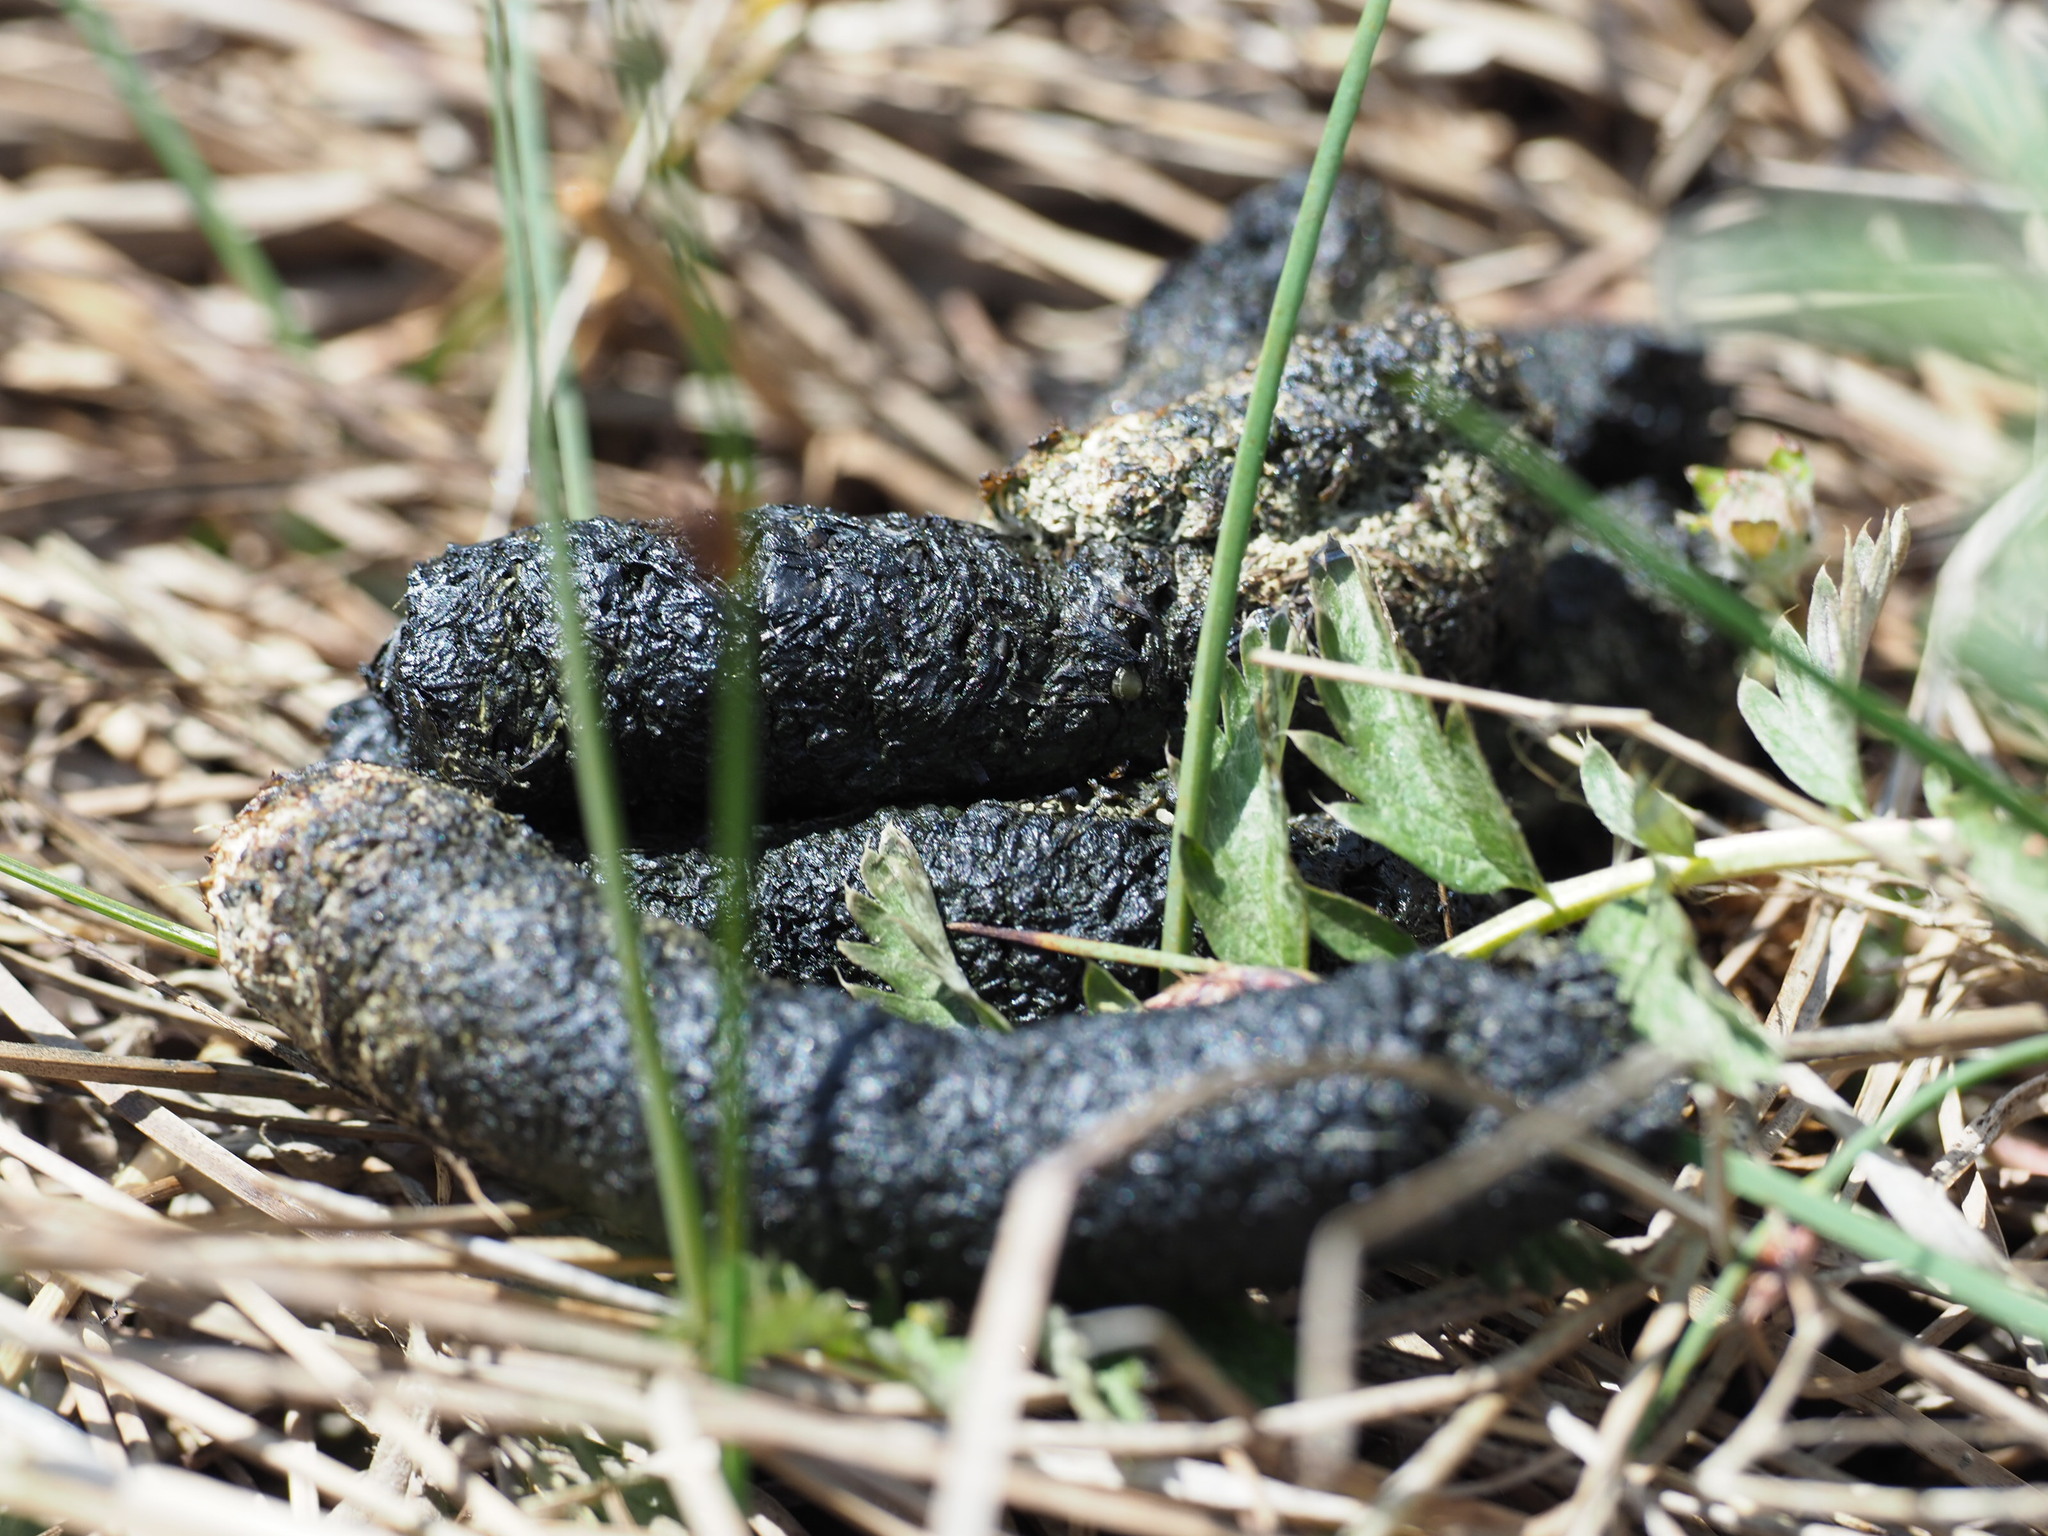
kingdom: Animalia
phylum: Chordata
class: Aves
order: Anseriformes
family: Anatidae
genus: Branta
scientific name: Branta canadensis
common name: Canada goose
